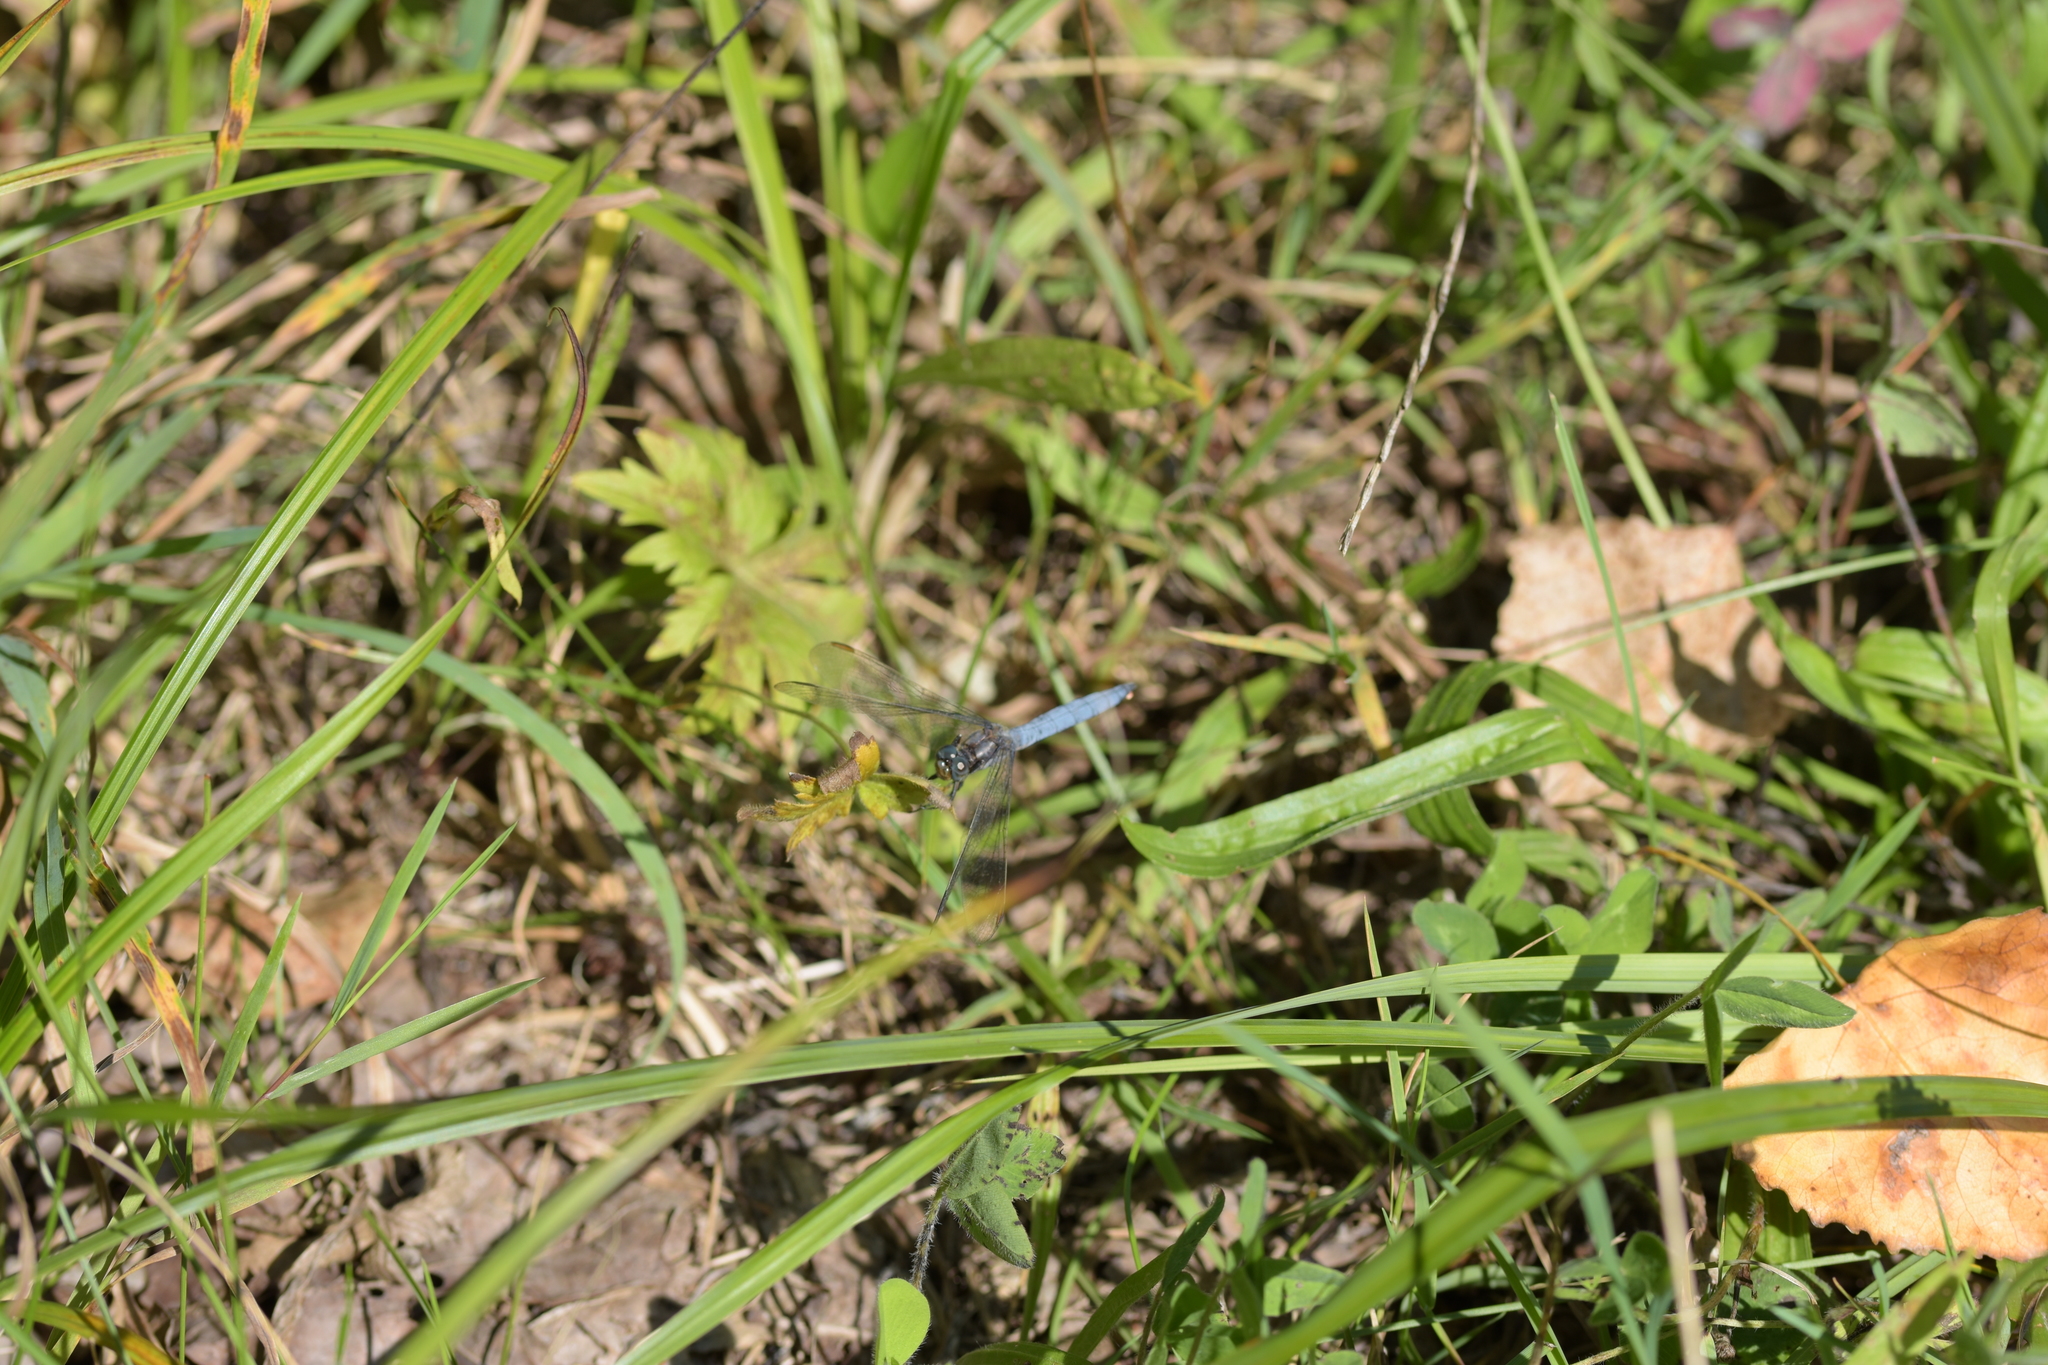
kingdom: Animalia
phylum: Arthropoda
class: Insecta
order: Odonata
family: Libellulidae
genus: Orthetrum
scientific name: Orthetrum coerulescens
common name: Keeled skimmer
